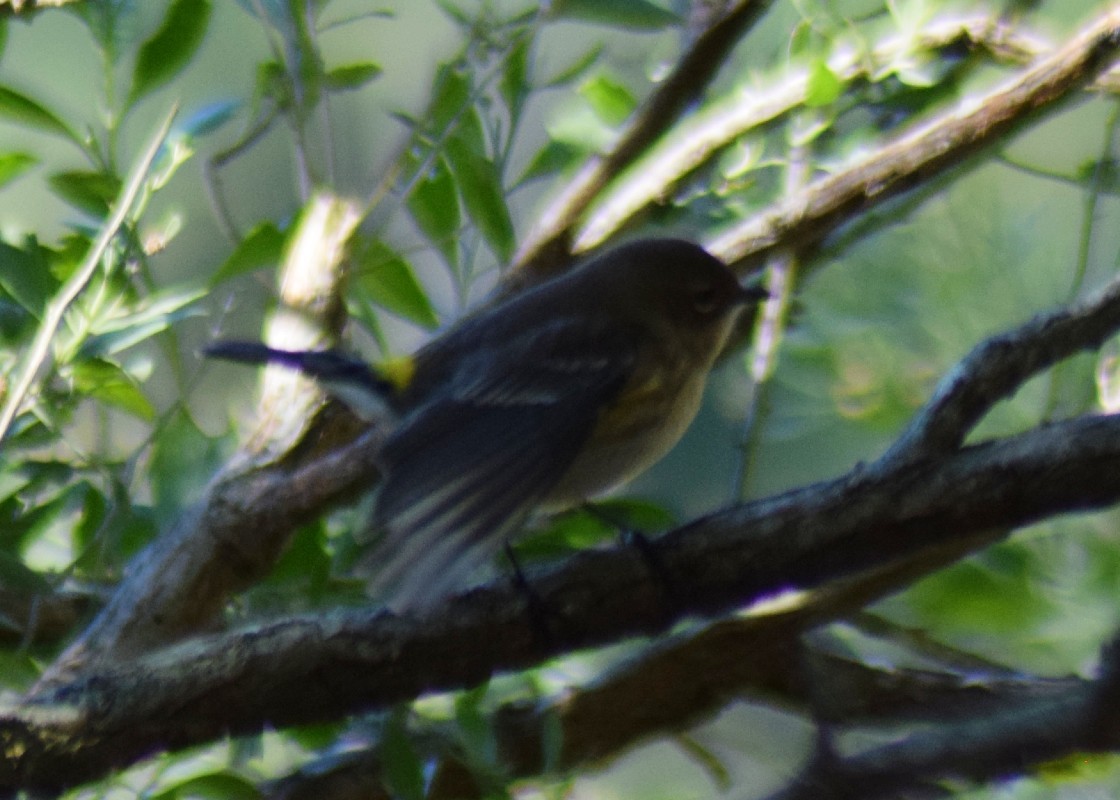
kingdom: Animalia
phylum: Chordata
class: Aves
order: Passeriformes
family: Parulidae
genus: Setophaga
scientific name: Setophaga coronata
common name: Myrtle warbler
